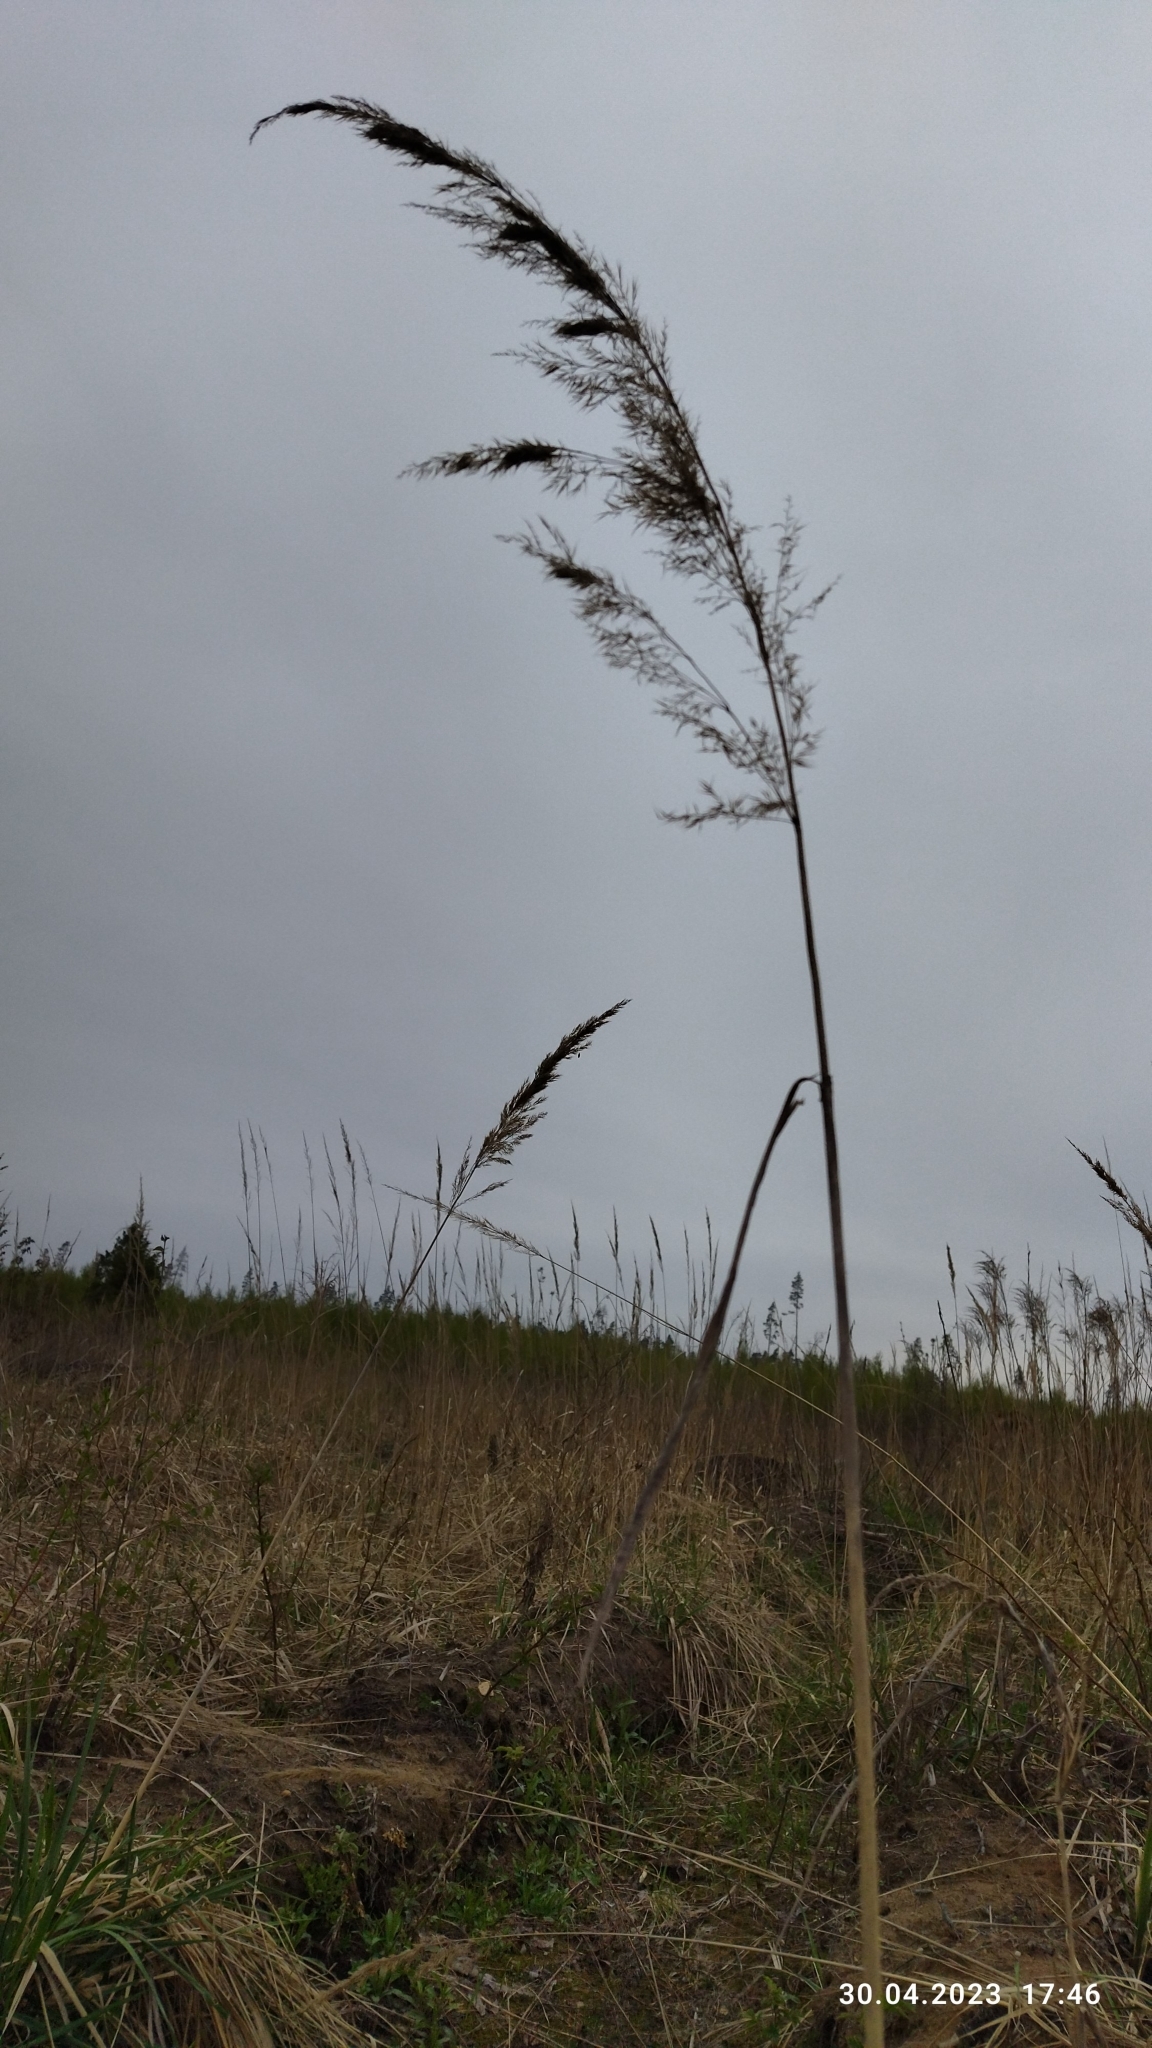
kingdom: Plantae
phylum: Tracheophyta
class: Liliopsida
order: Poales
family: Poaceae
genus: Phragmites
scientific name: Phragmites australis
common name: Common reed
